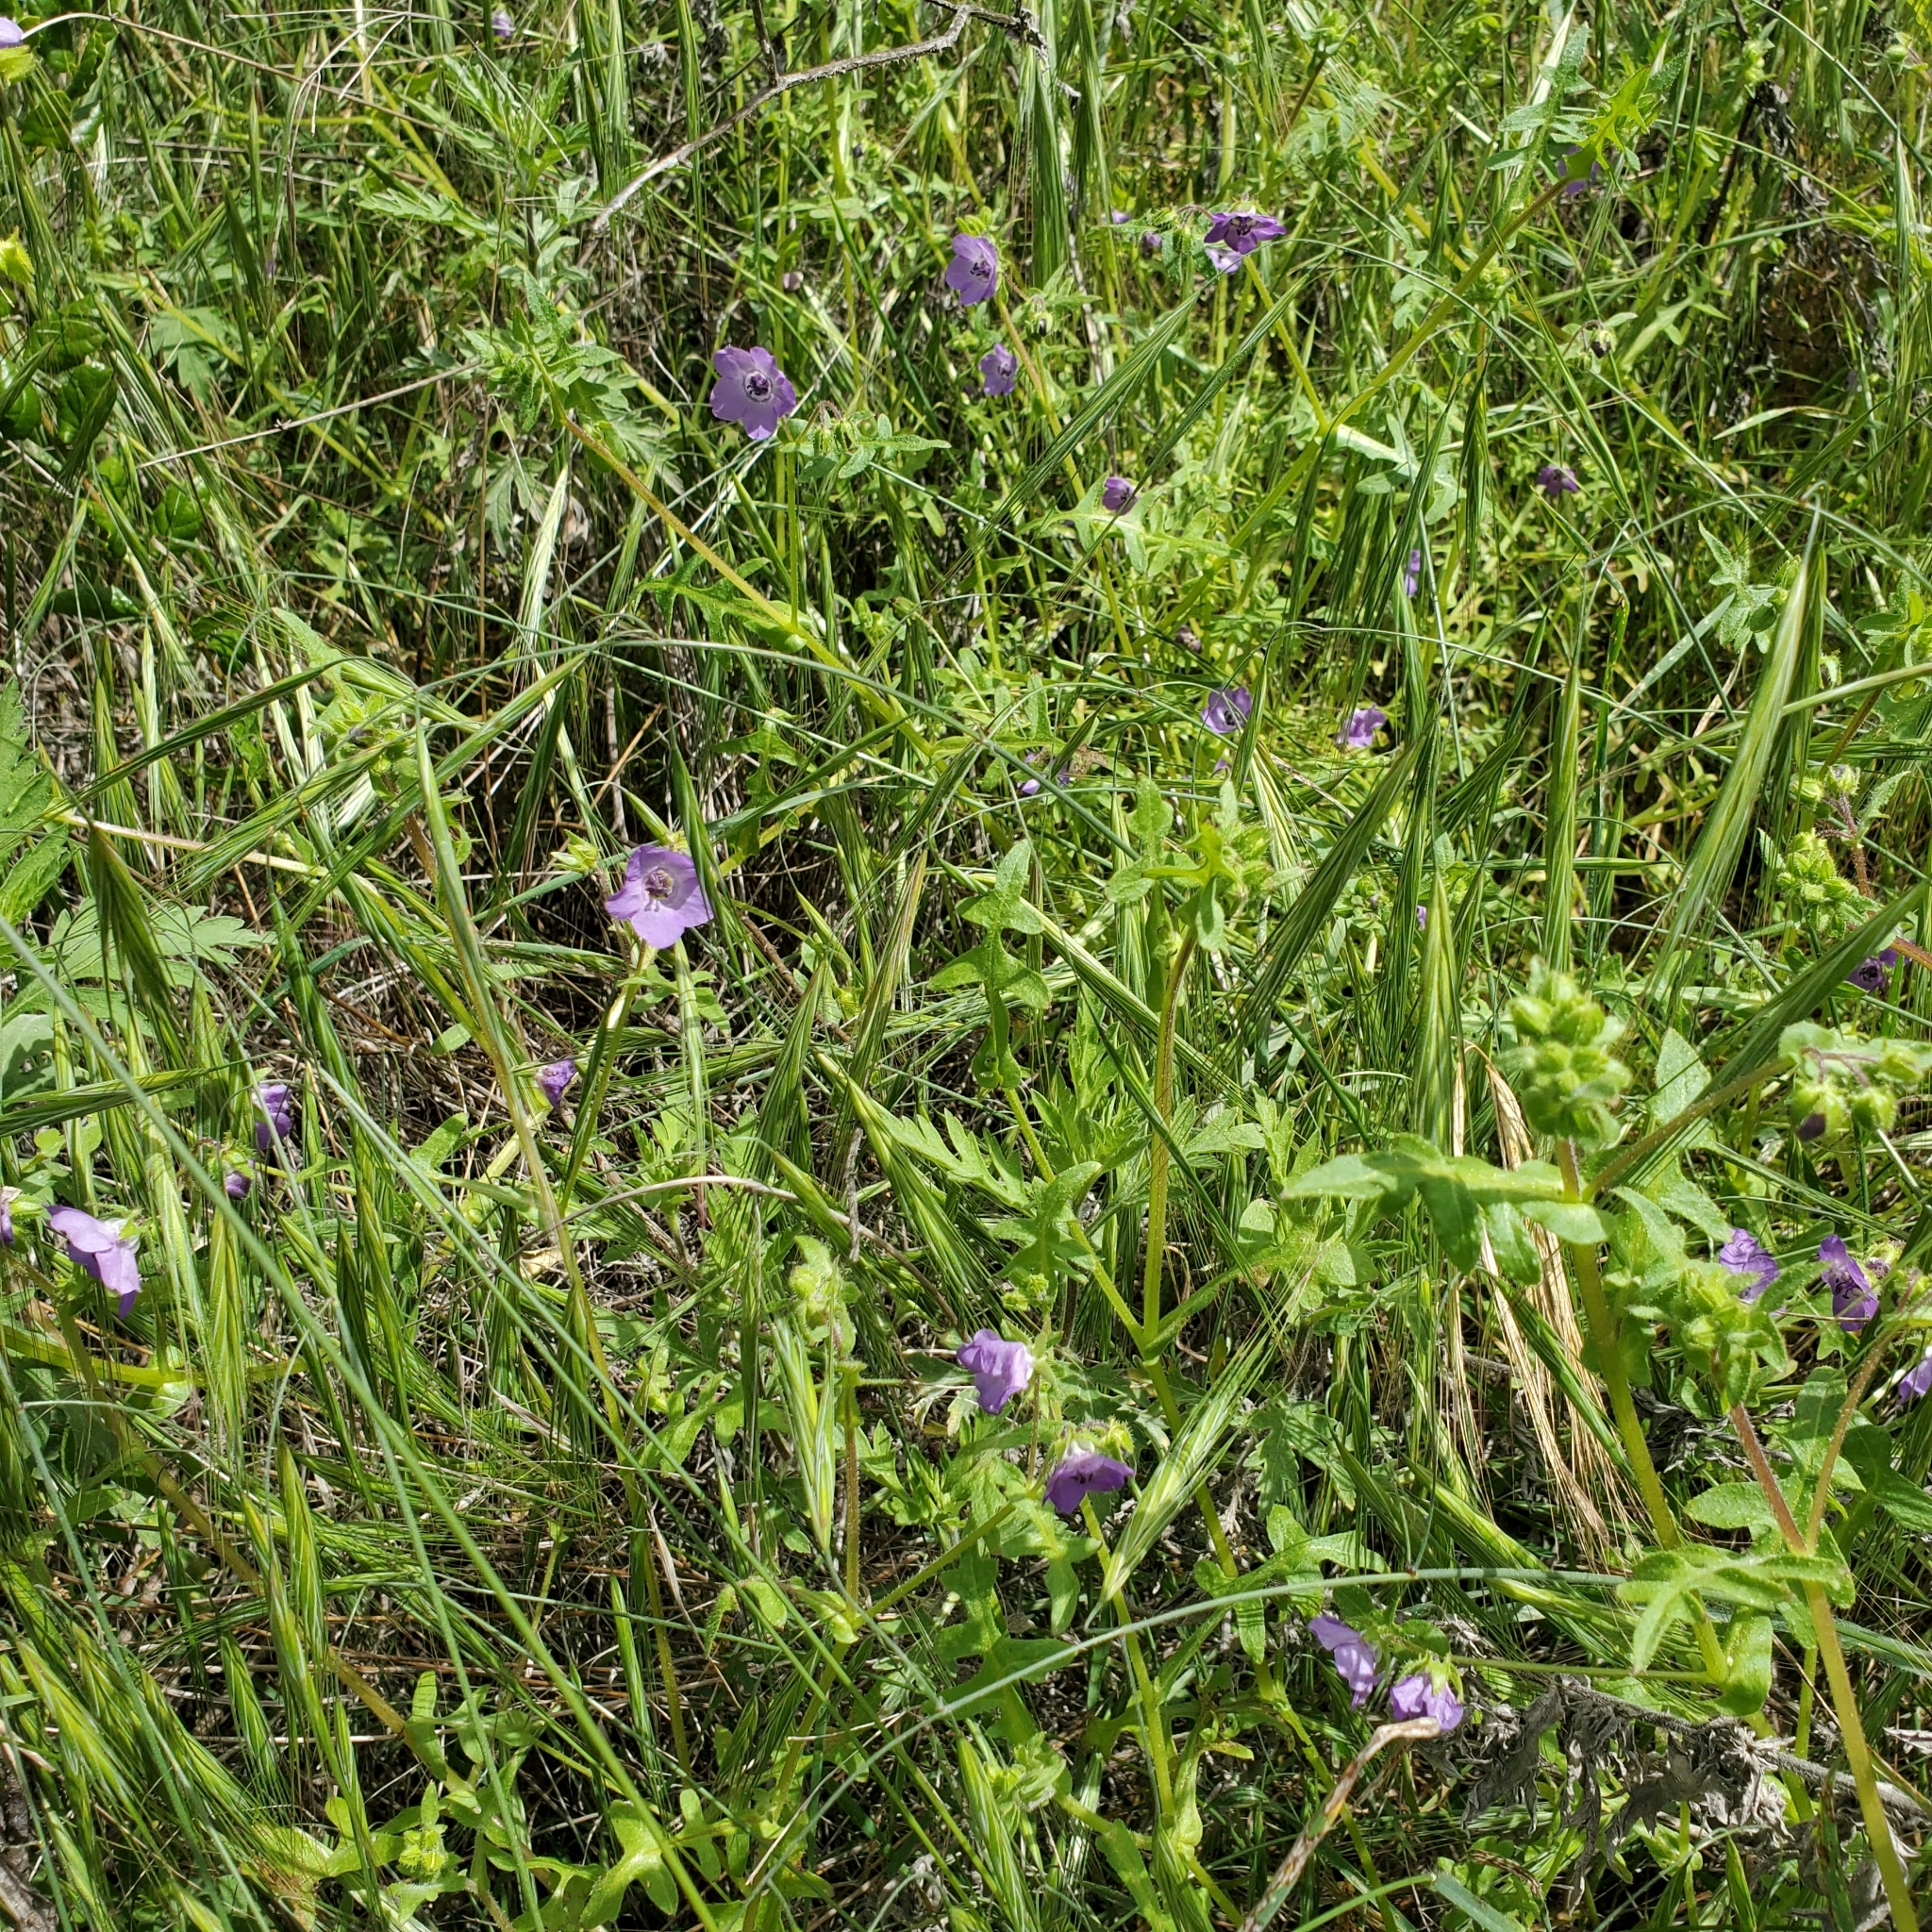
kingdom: Plantae
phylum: Tracheophyta
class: Magnoliopsida
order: Boraginales
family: Hydrophyllaceae
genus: Pholistoma
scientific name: Pholistoma auritum
